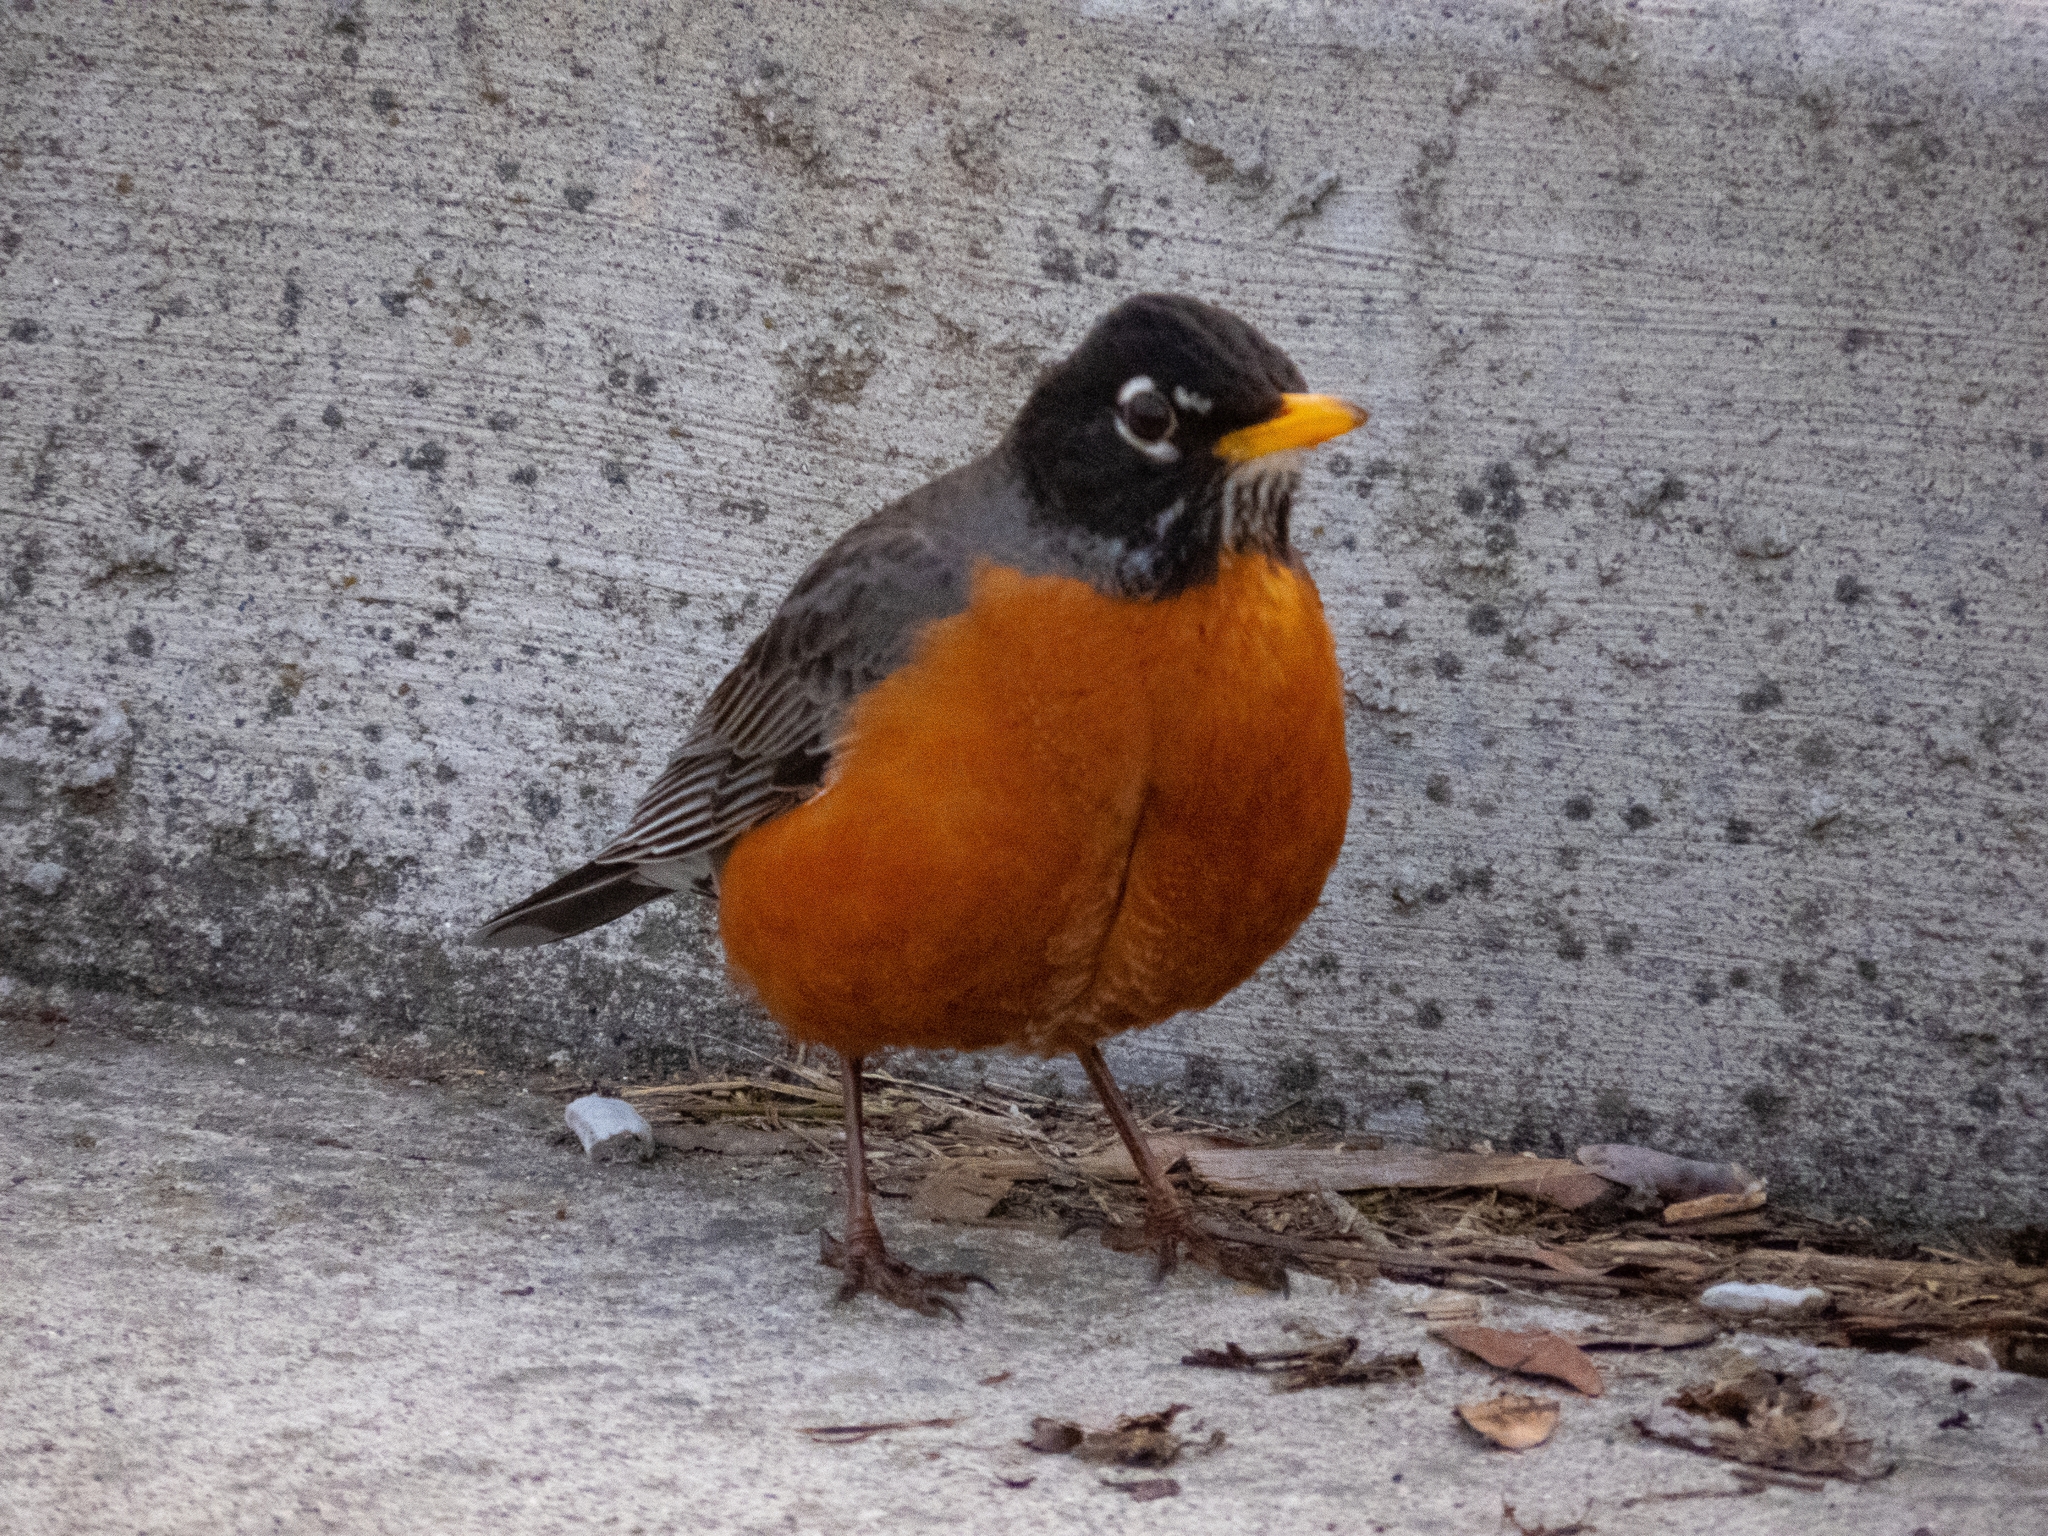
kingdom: Animalia
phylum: Chordata
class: Aves
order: Passeriformes
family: Turdidae
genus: Turdus
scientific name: Turdus migratorius
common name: American robin
